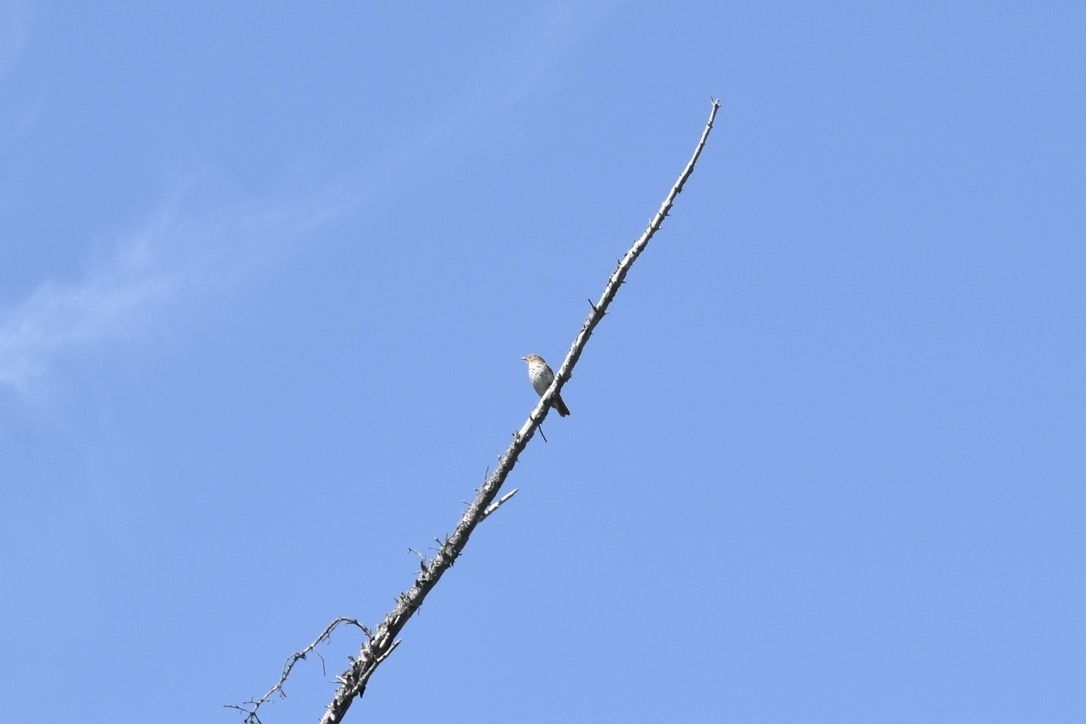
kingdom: Animalia
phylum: Chordata
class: Aves
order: Passeriformes
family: Turdidae
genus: Catharus
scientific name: Catharus ustulatus
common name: Swainson's thrush
